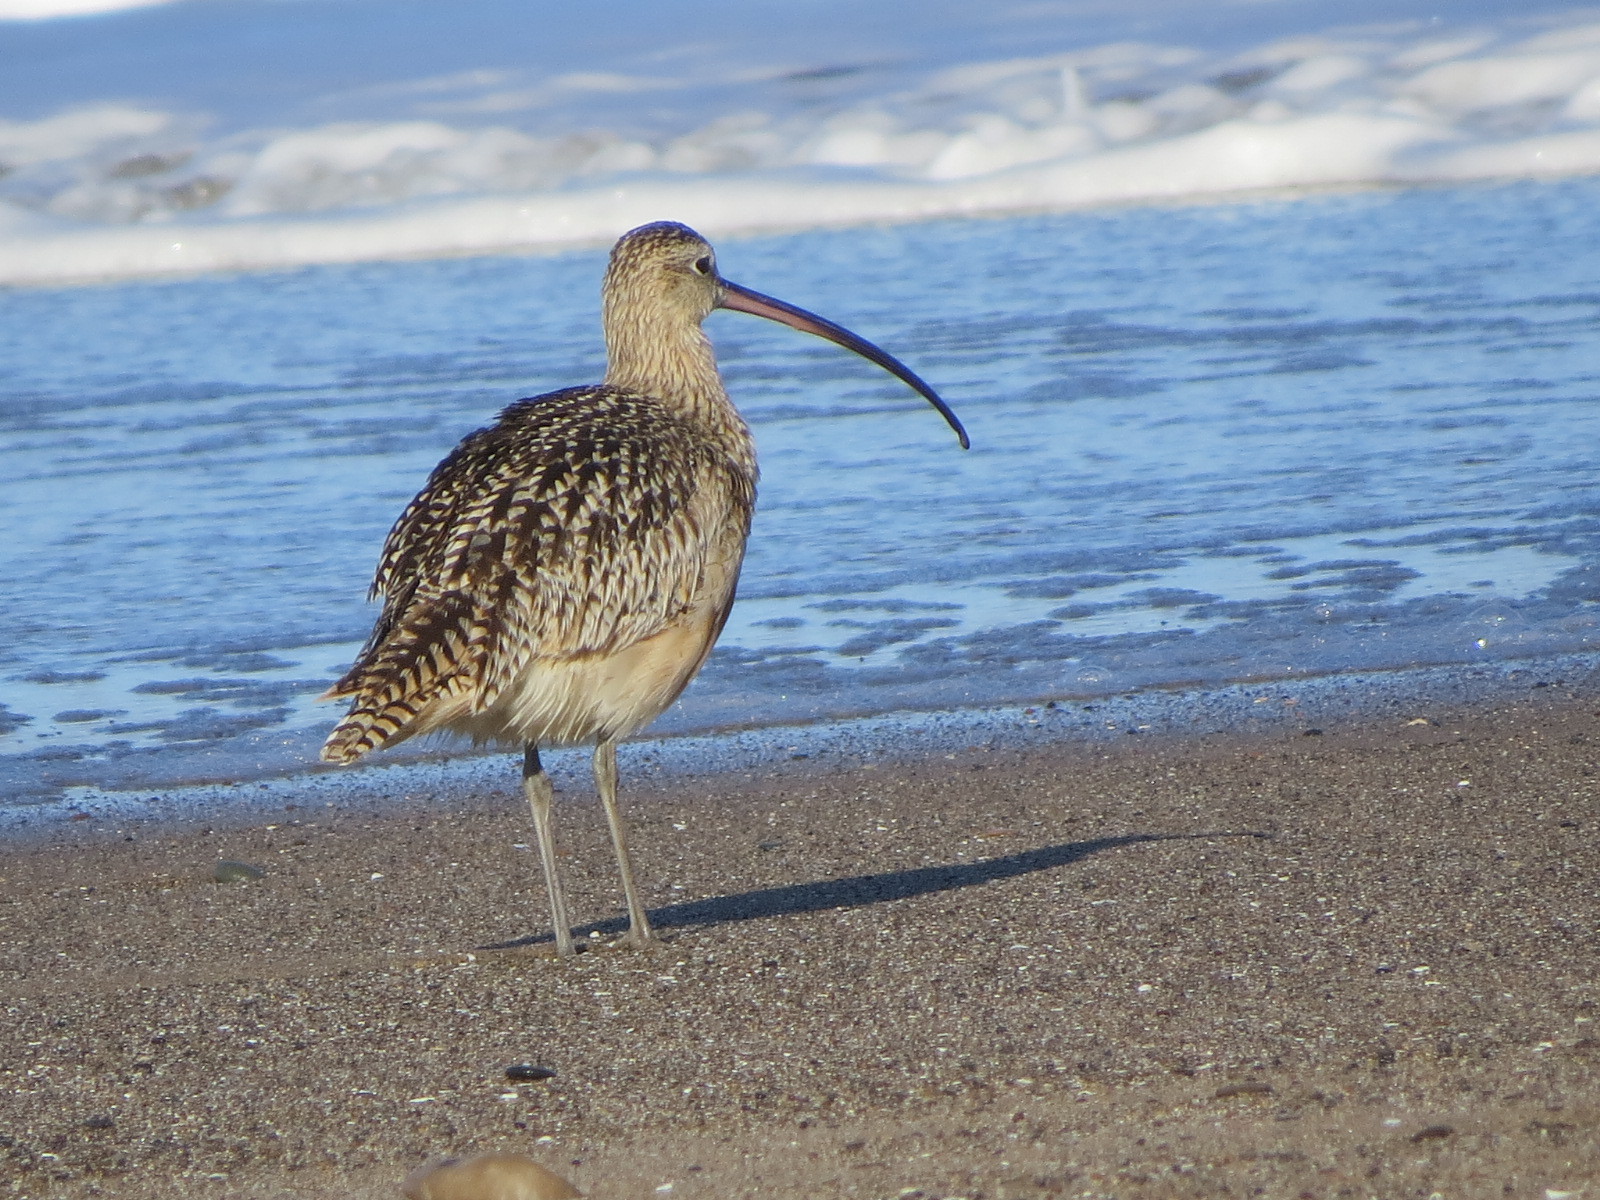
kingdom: Animalia
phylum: Chordata
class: Aves
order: Charadriiformes
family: Scolopacidae
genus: Numenius
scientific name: Numenius americanus
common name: Long-billed curlew
